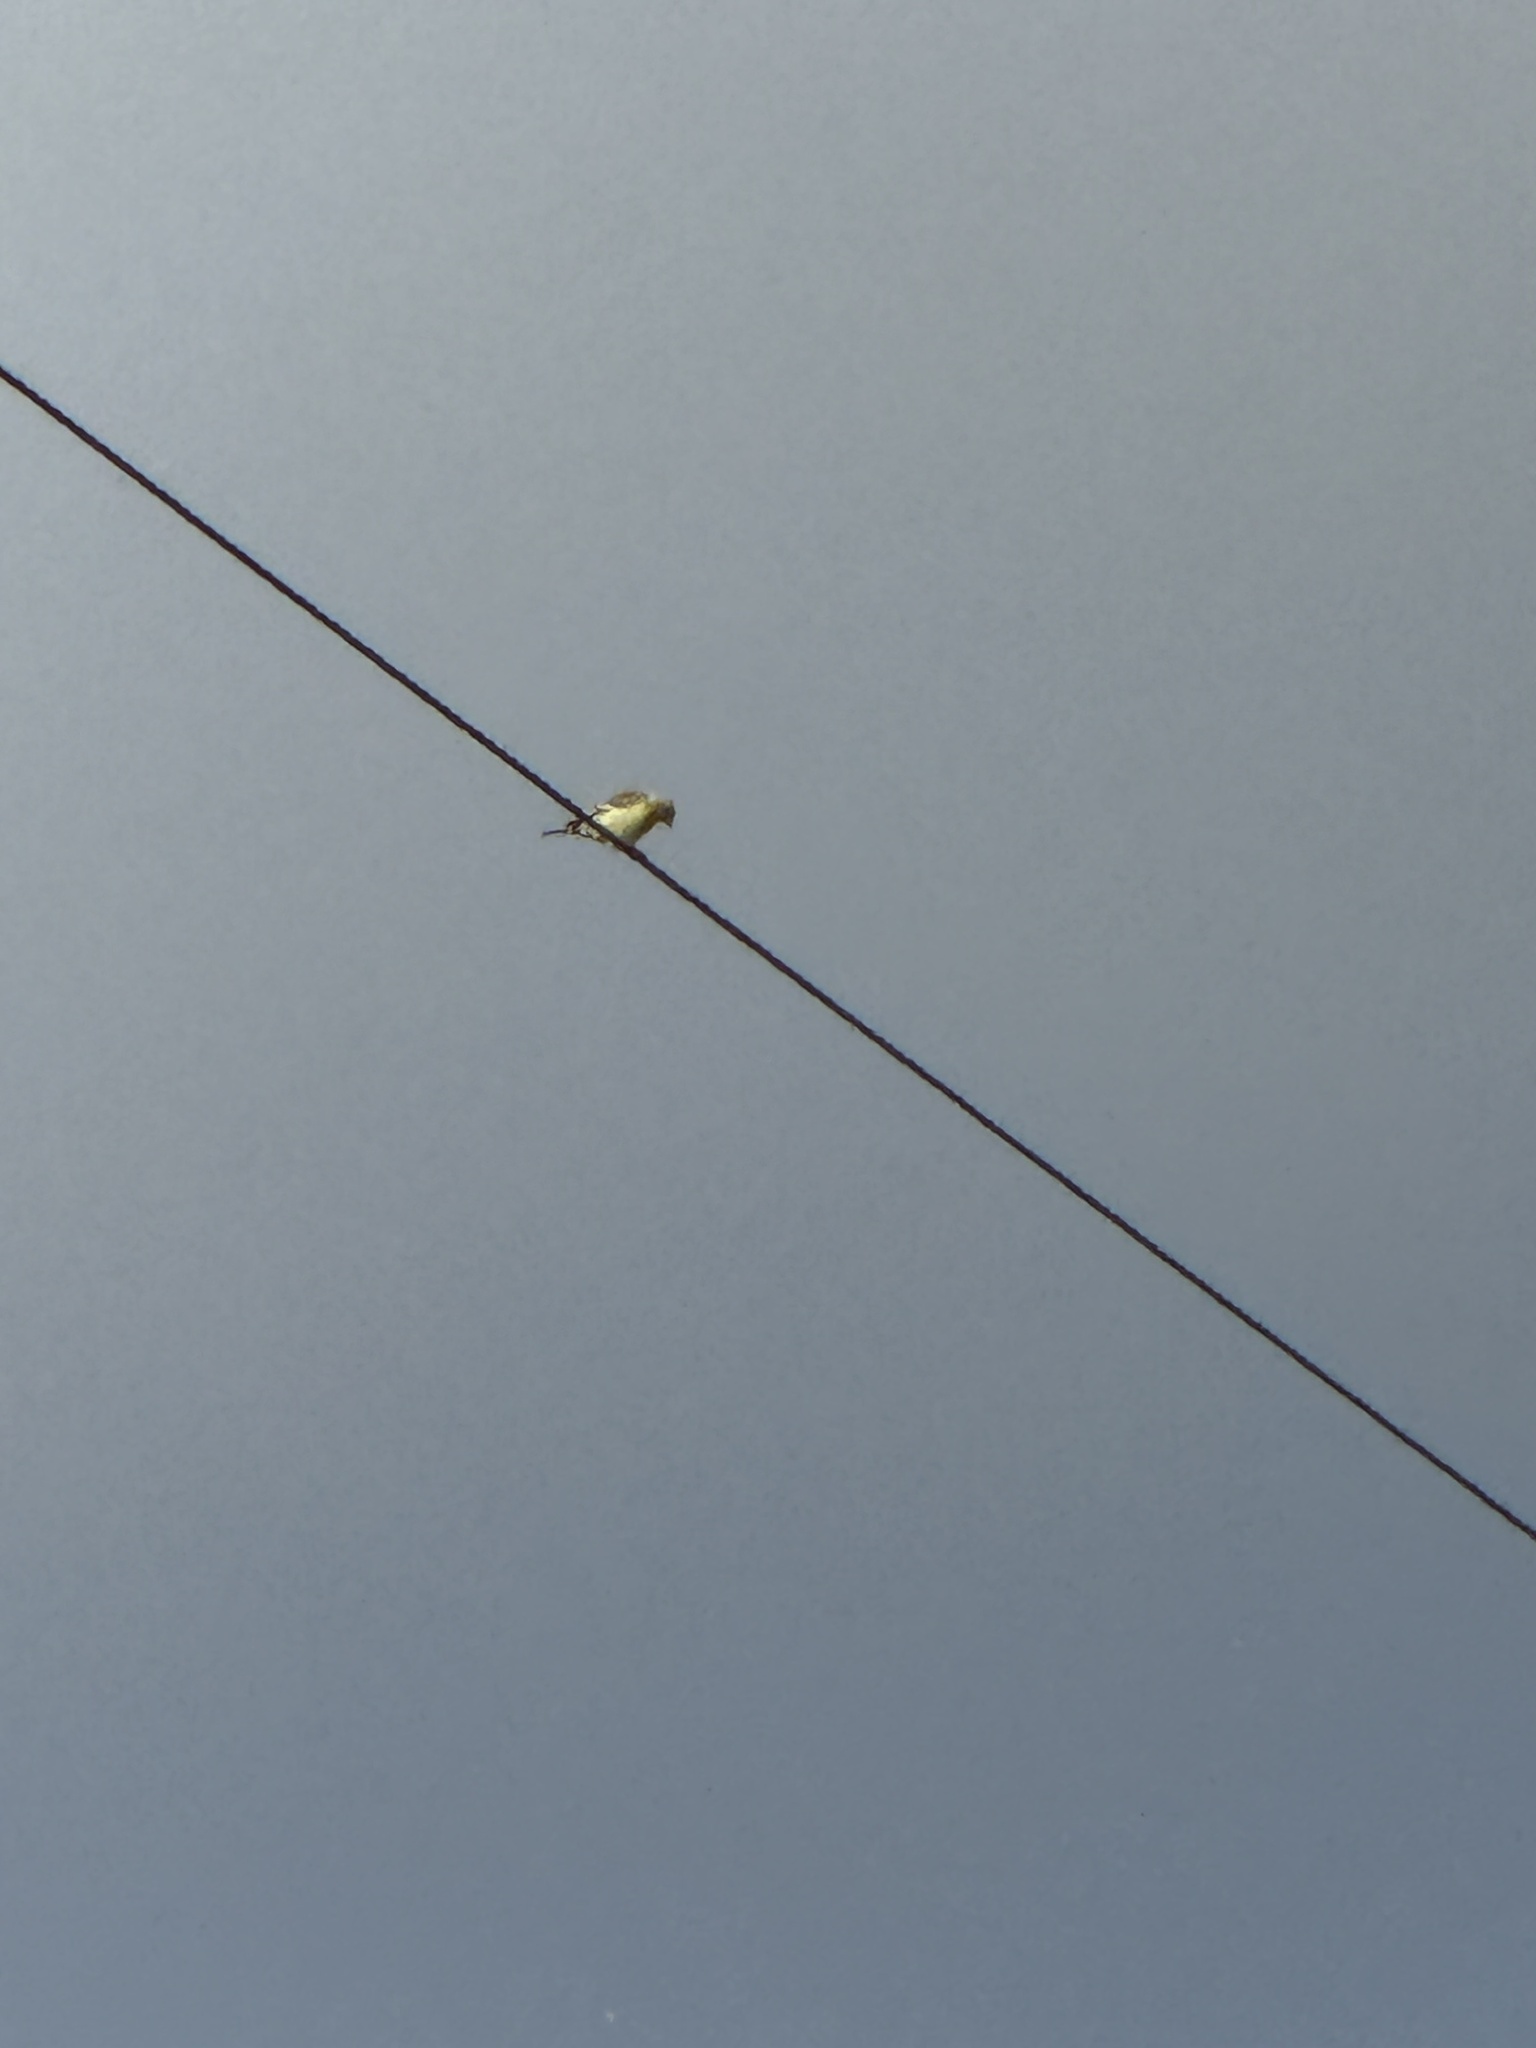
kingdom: Animalia
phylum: Chordata
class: Aves
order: Passeriformes
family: Fringillidae
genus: Spinus
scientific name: Spinus psaltria
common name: Lesser goldfinch
